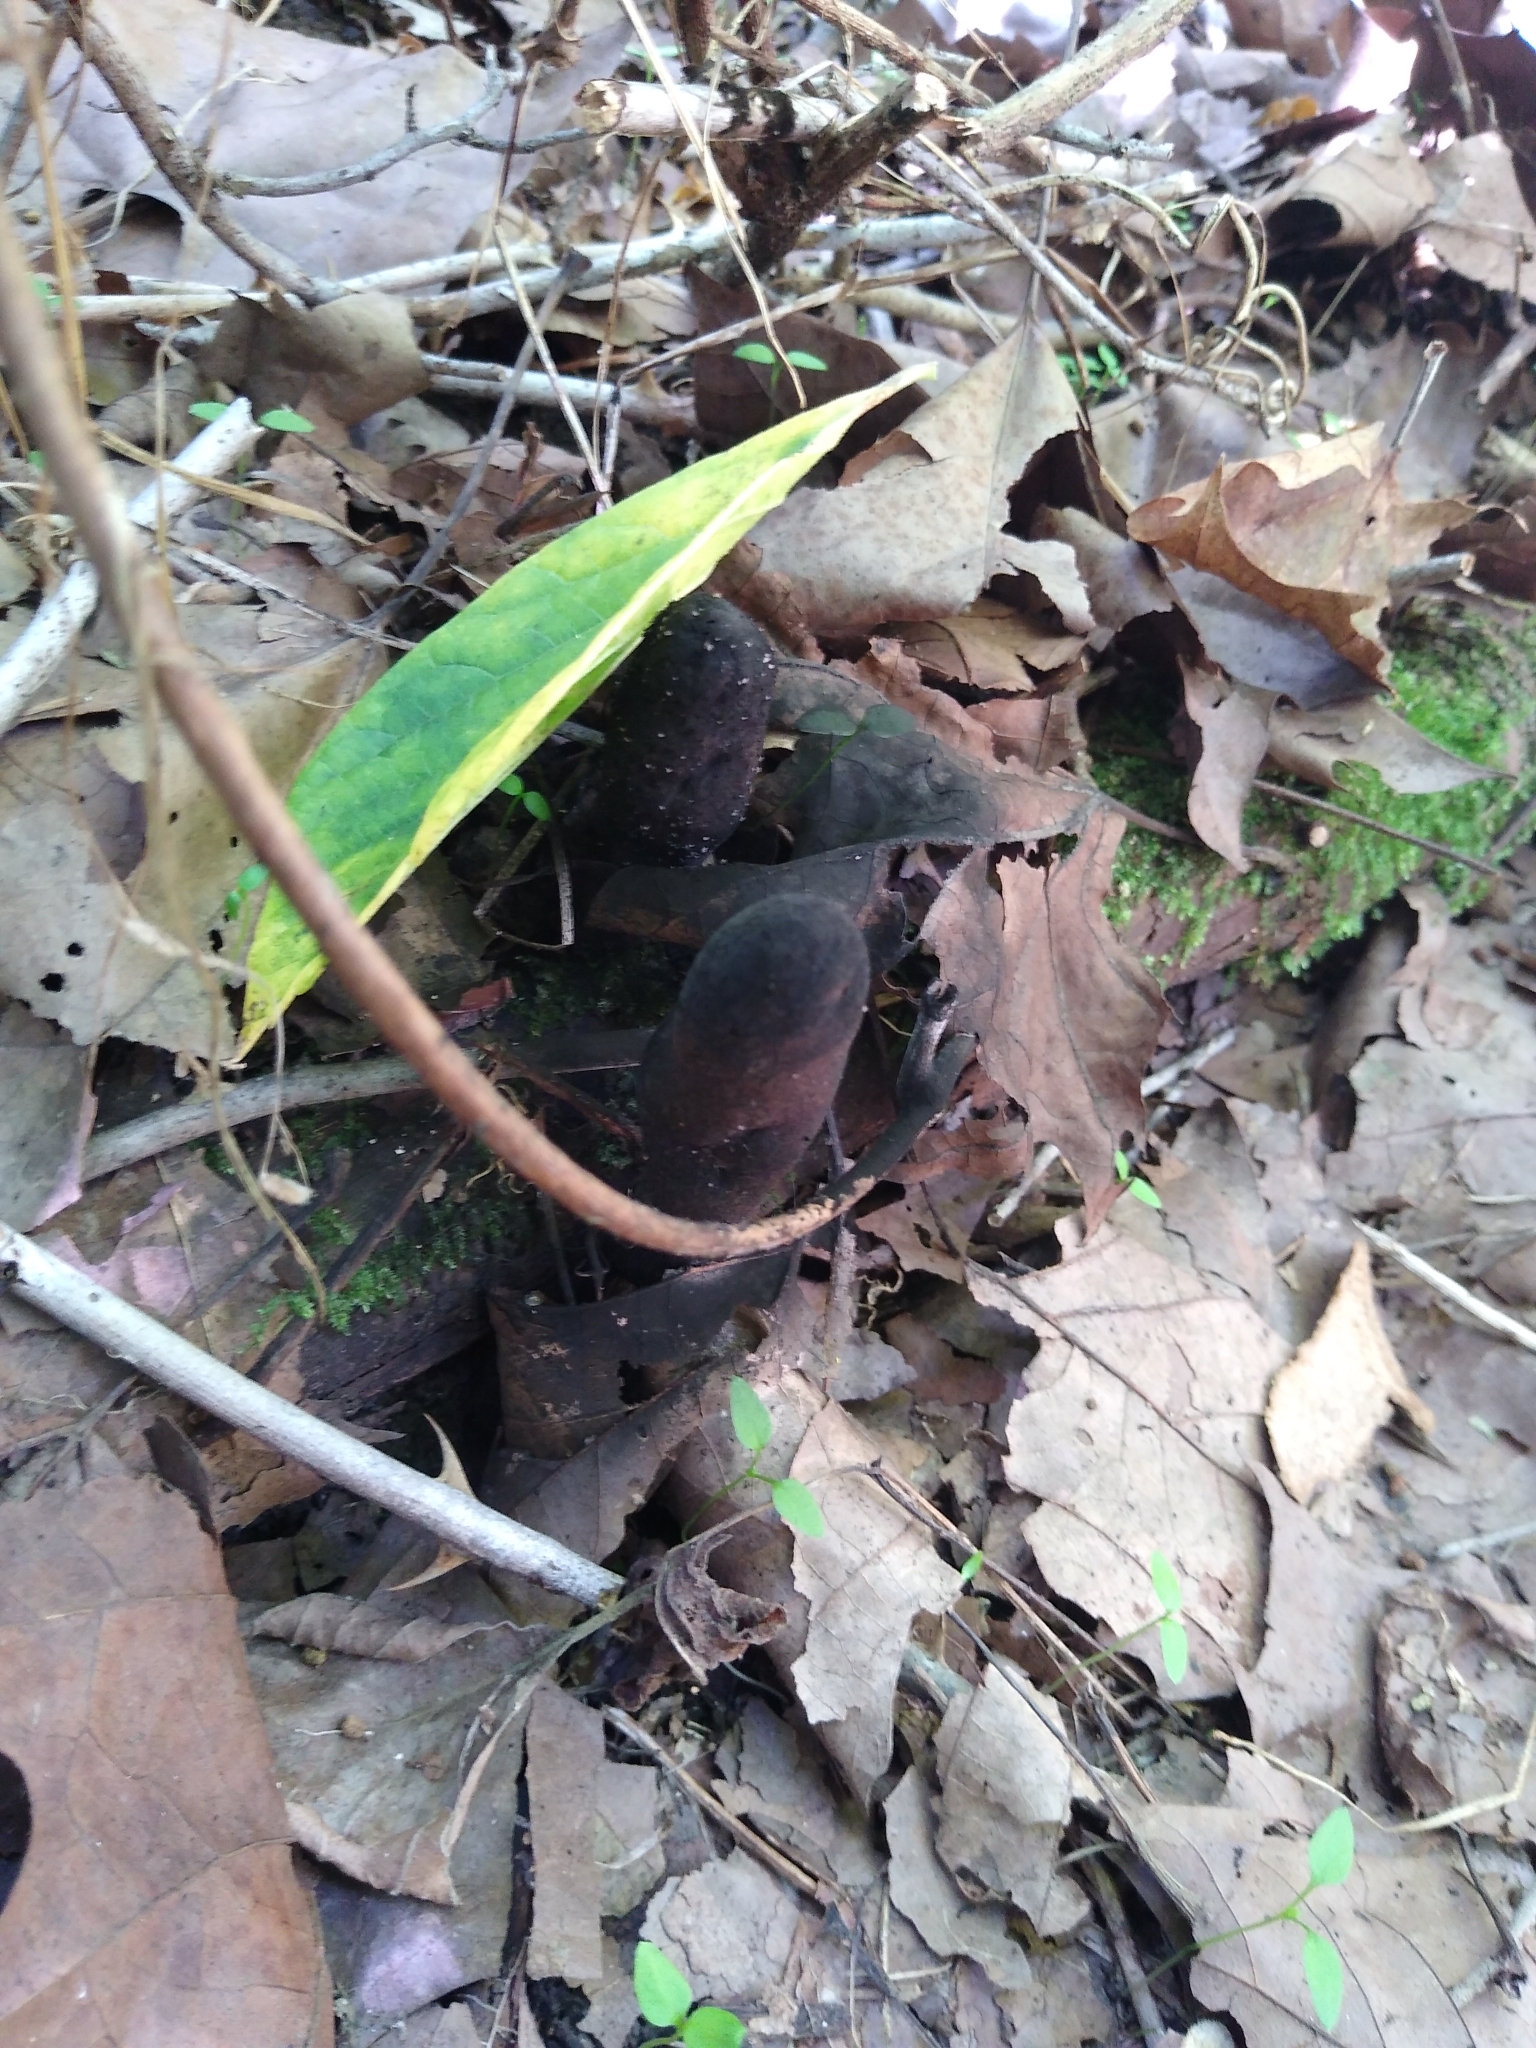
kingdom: Fungi
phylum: Ascomycota
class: Sordariomycetes
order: Xylariales
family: Xylariaceae
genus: Xylaria
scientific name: Xylaria polymorpha
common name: Dead man's fingers
